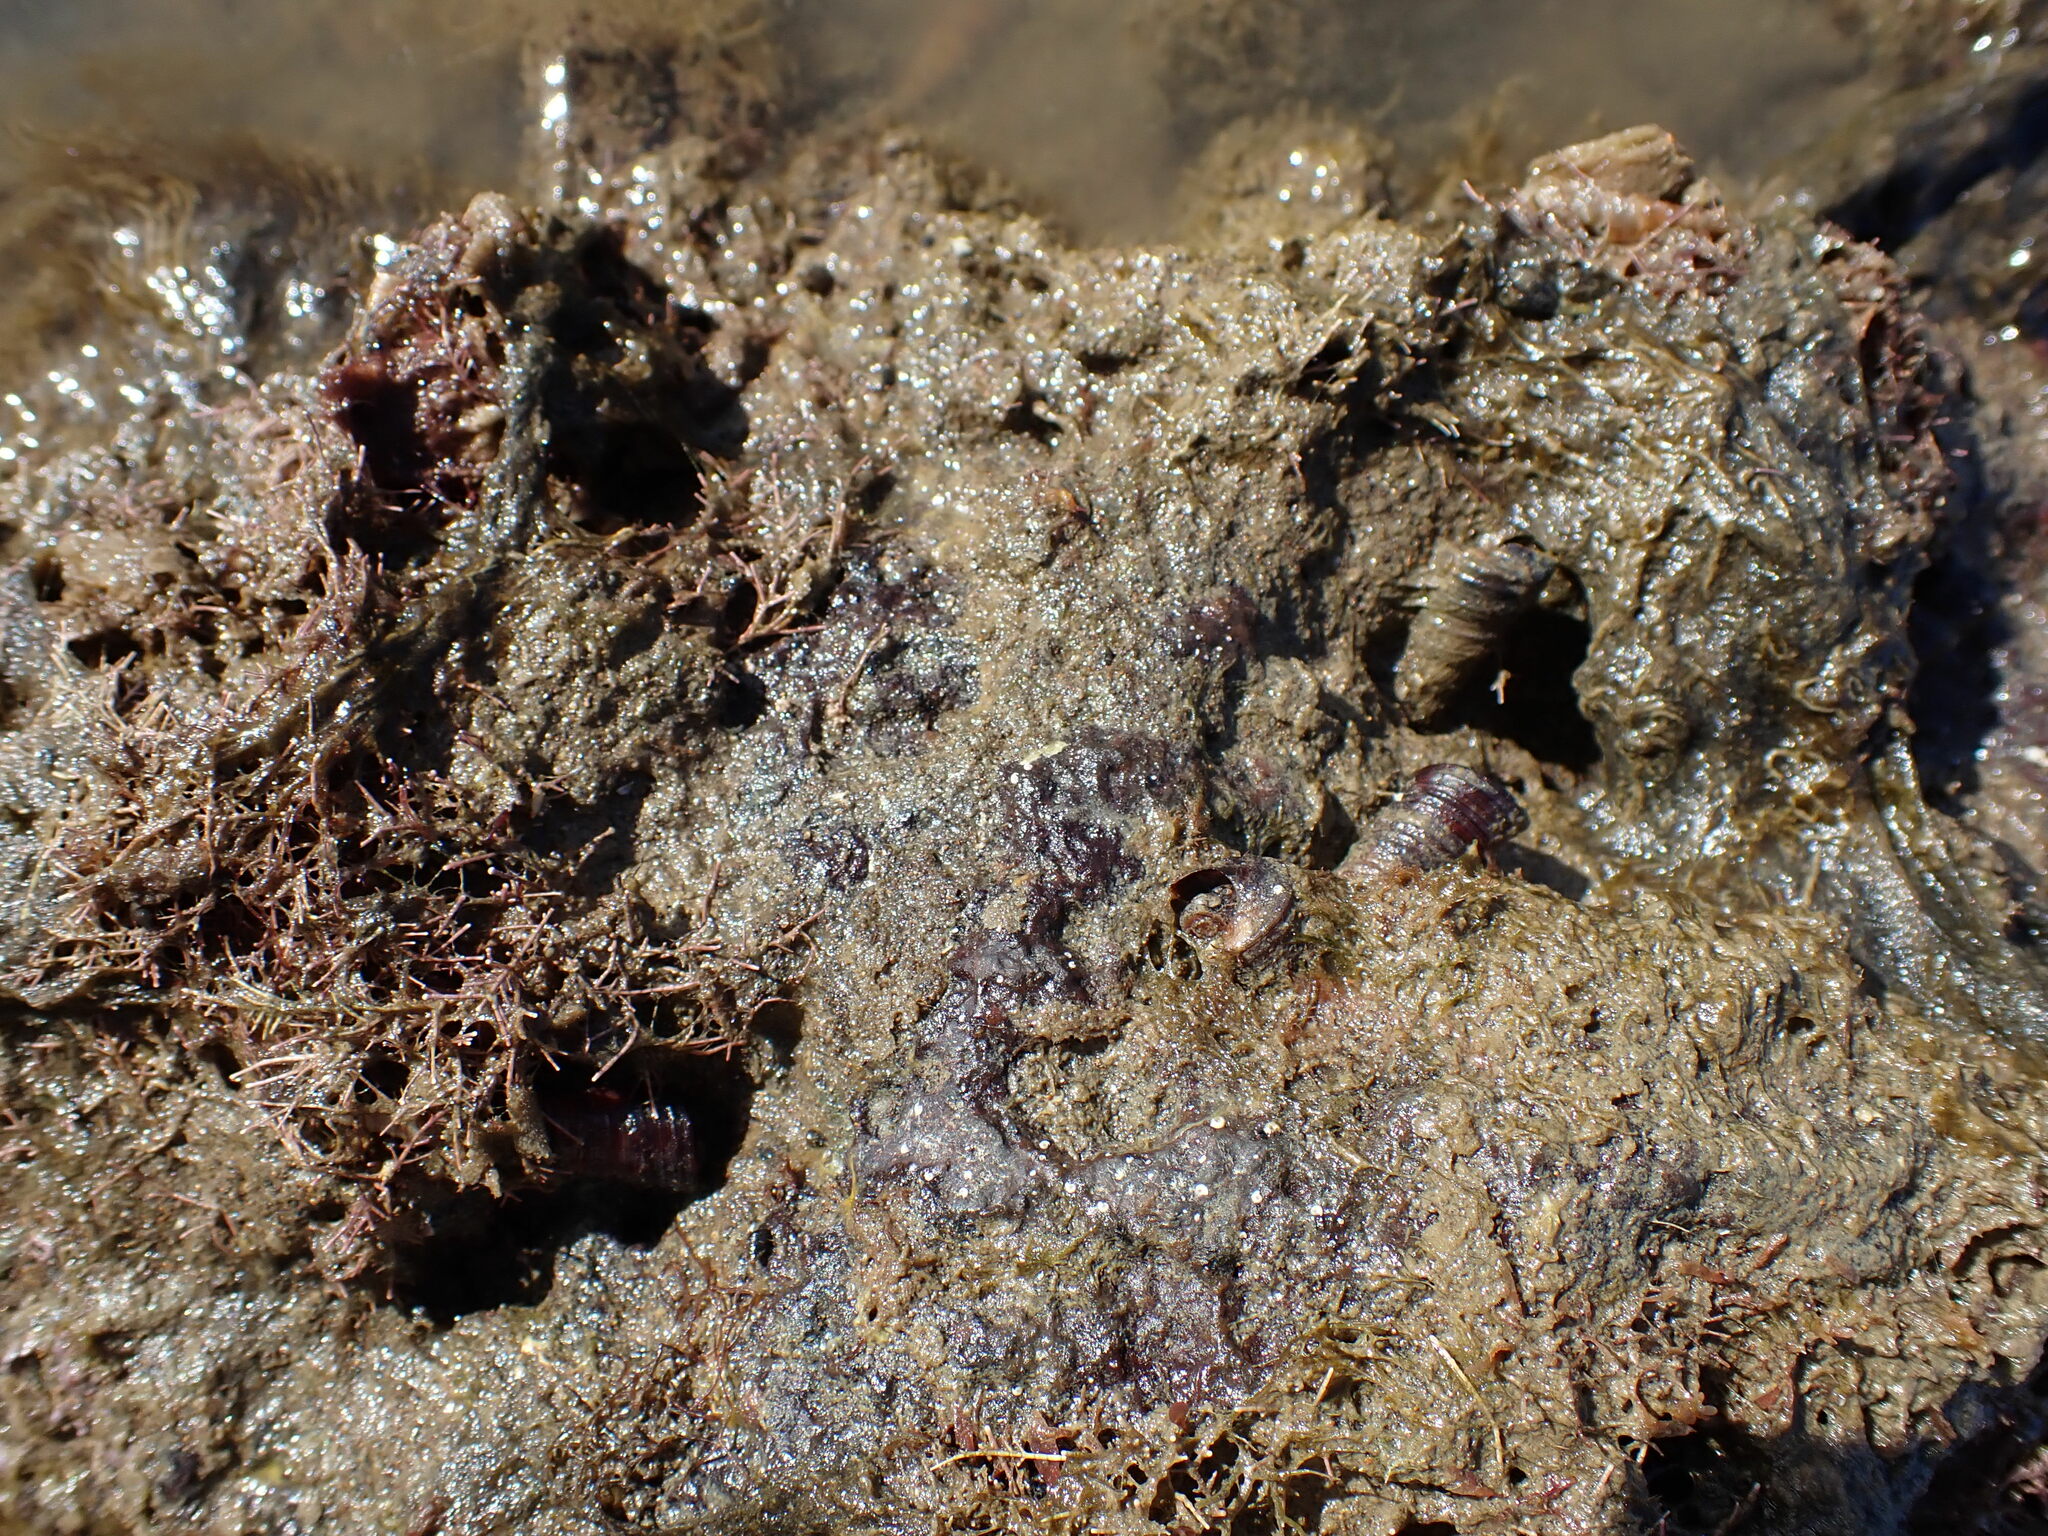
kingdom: Animalia
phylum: Mollusca
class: Gastropoda
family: Turritellidae
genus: Maoricolpus
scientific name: Maoricolpus roseus
